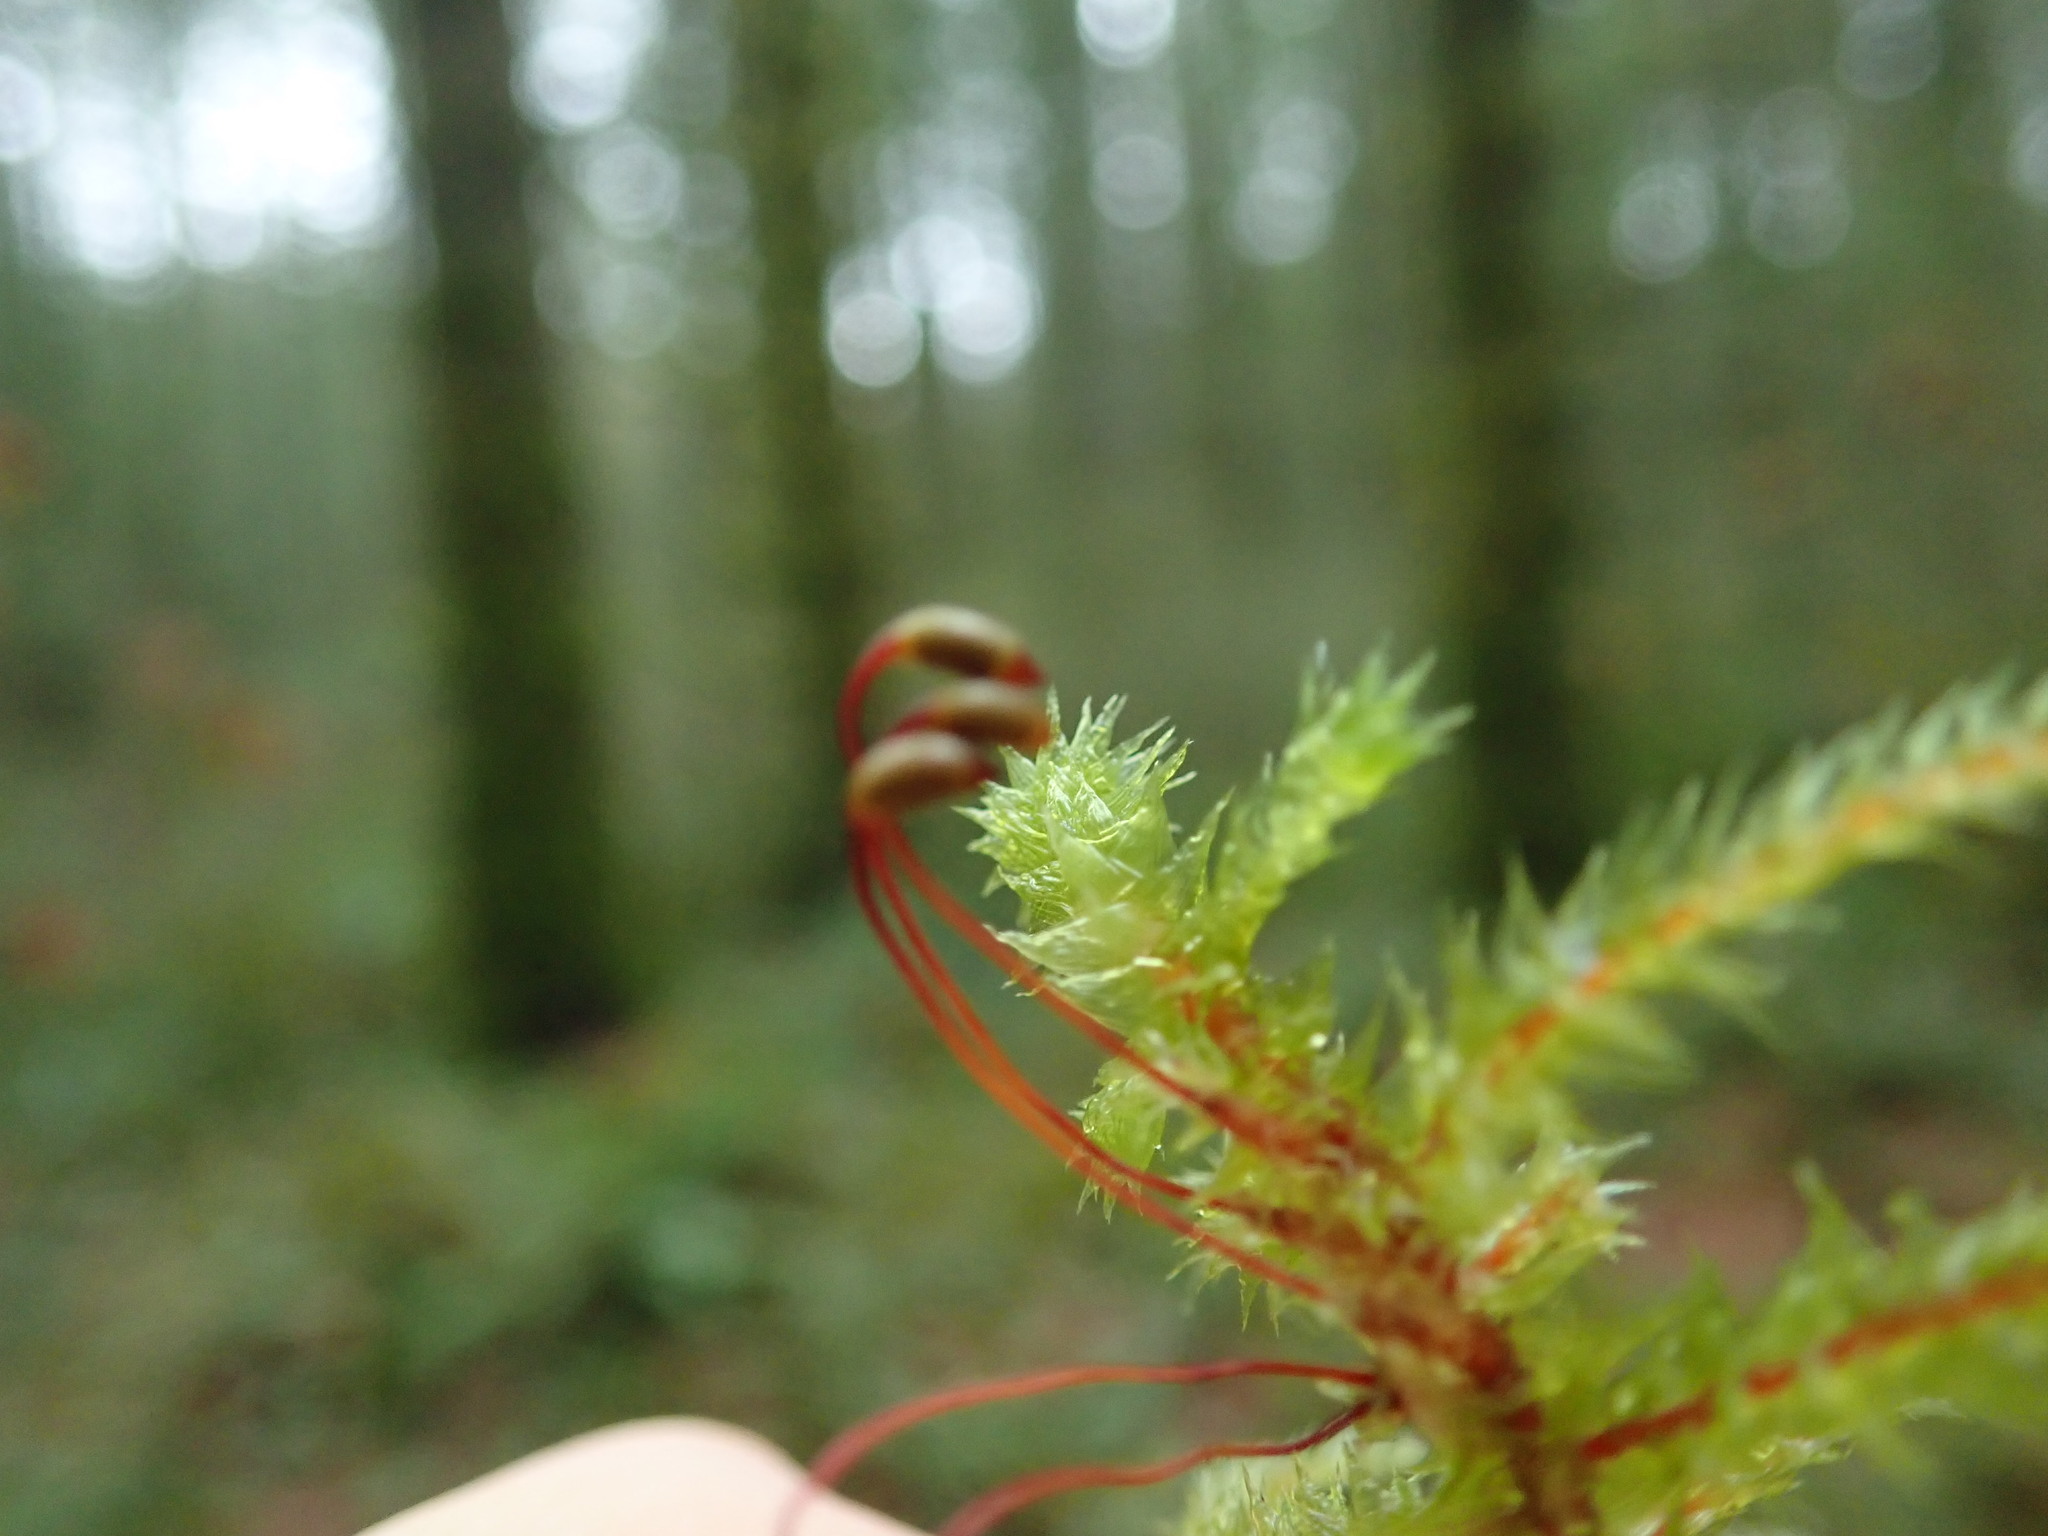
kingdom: Plantae
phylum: Bryophyta
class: Bryopsida
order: Hypnales
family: Hylocomiaceae
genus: Hylocomiadelphus
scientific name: Hylocomiadelphus triquetrus
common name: Rough goose neck moss
